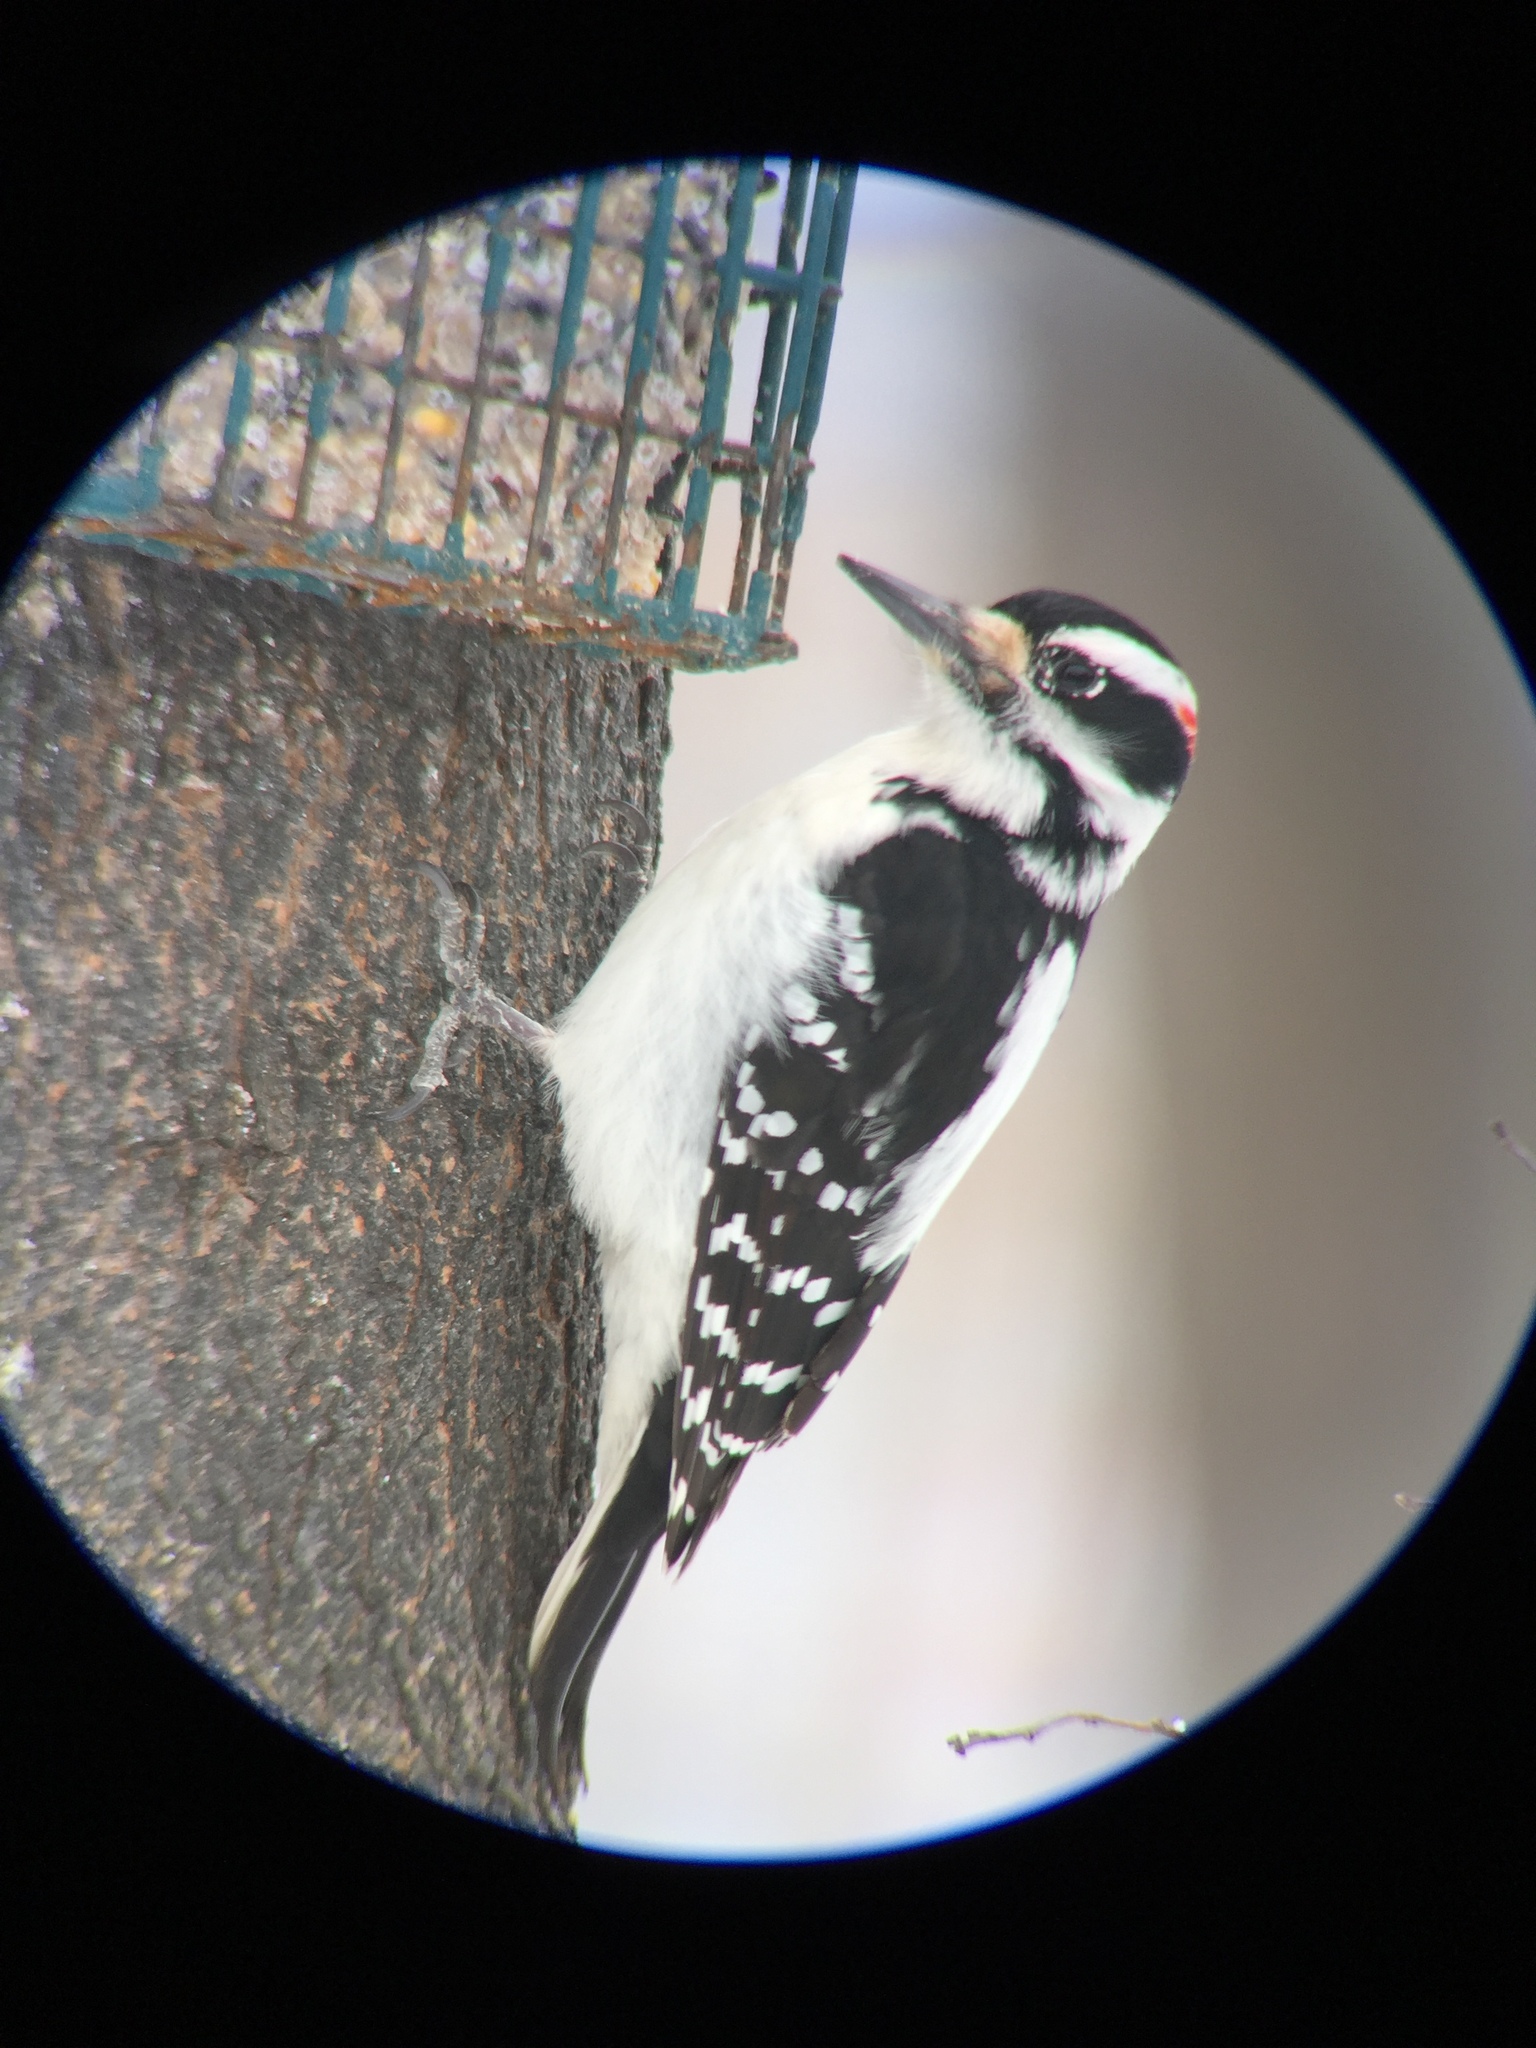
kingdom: Animalia
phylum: Chordata
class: Aves
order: Piciformes
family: Picidae
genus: Leuconotopicus
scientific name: Leuconotopicus villosus
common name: Hairy woodpecker
